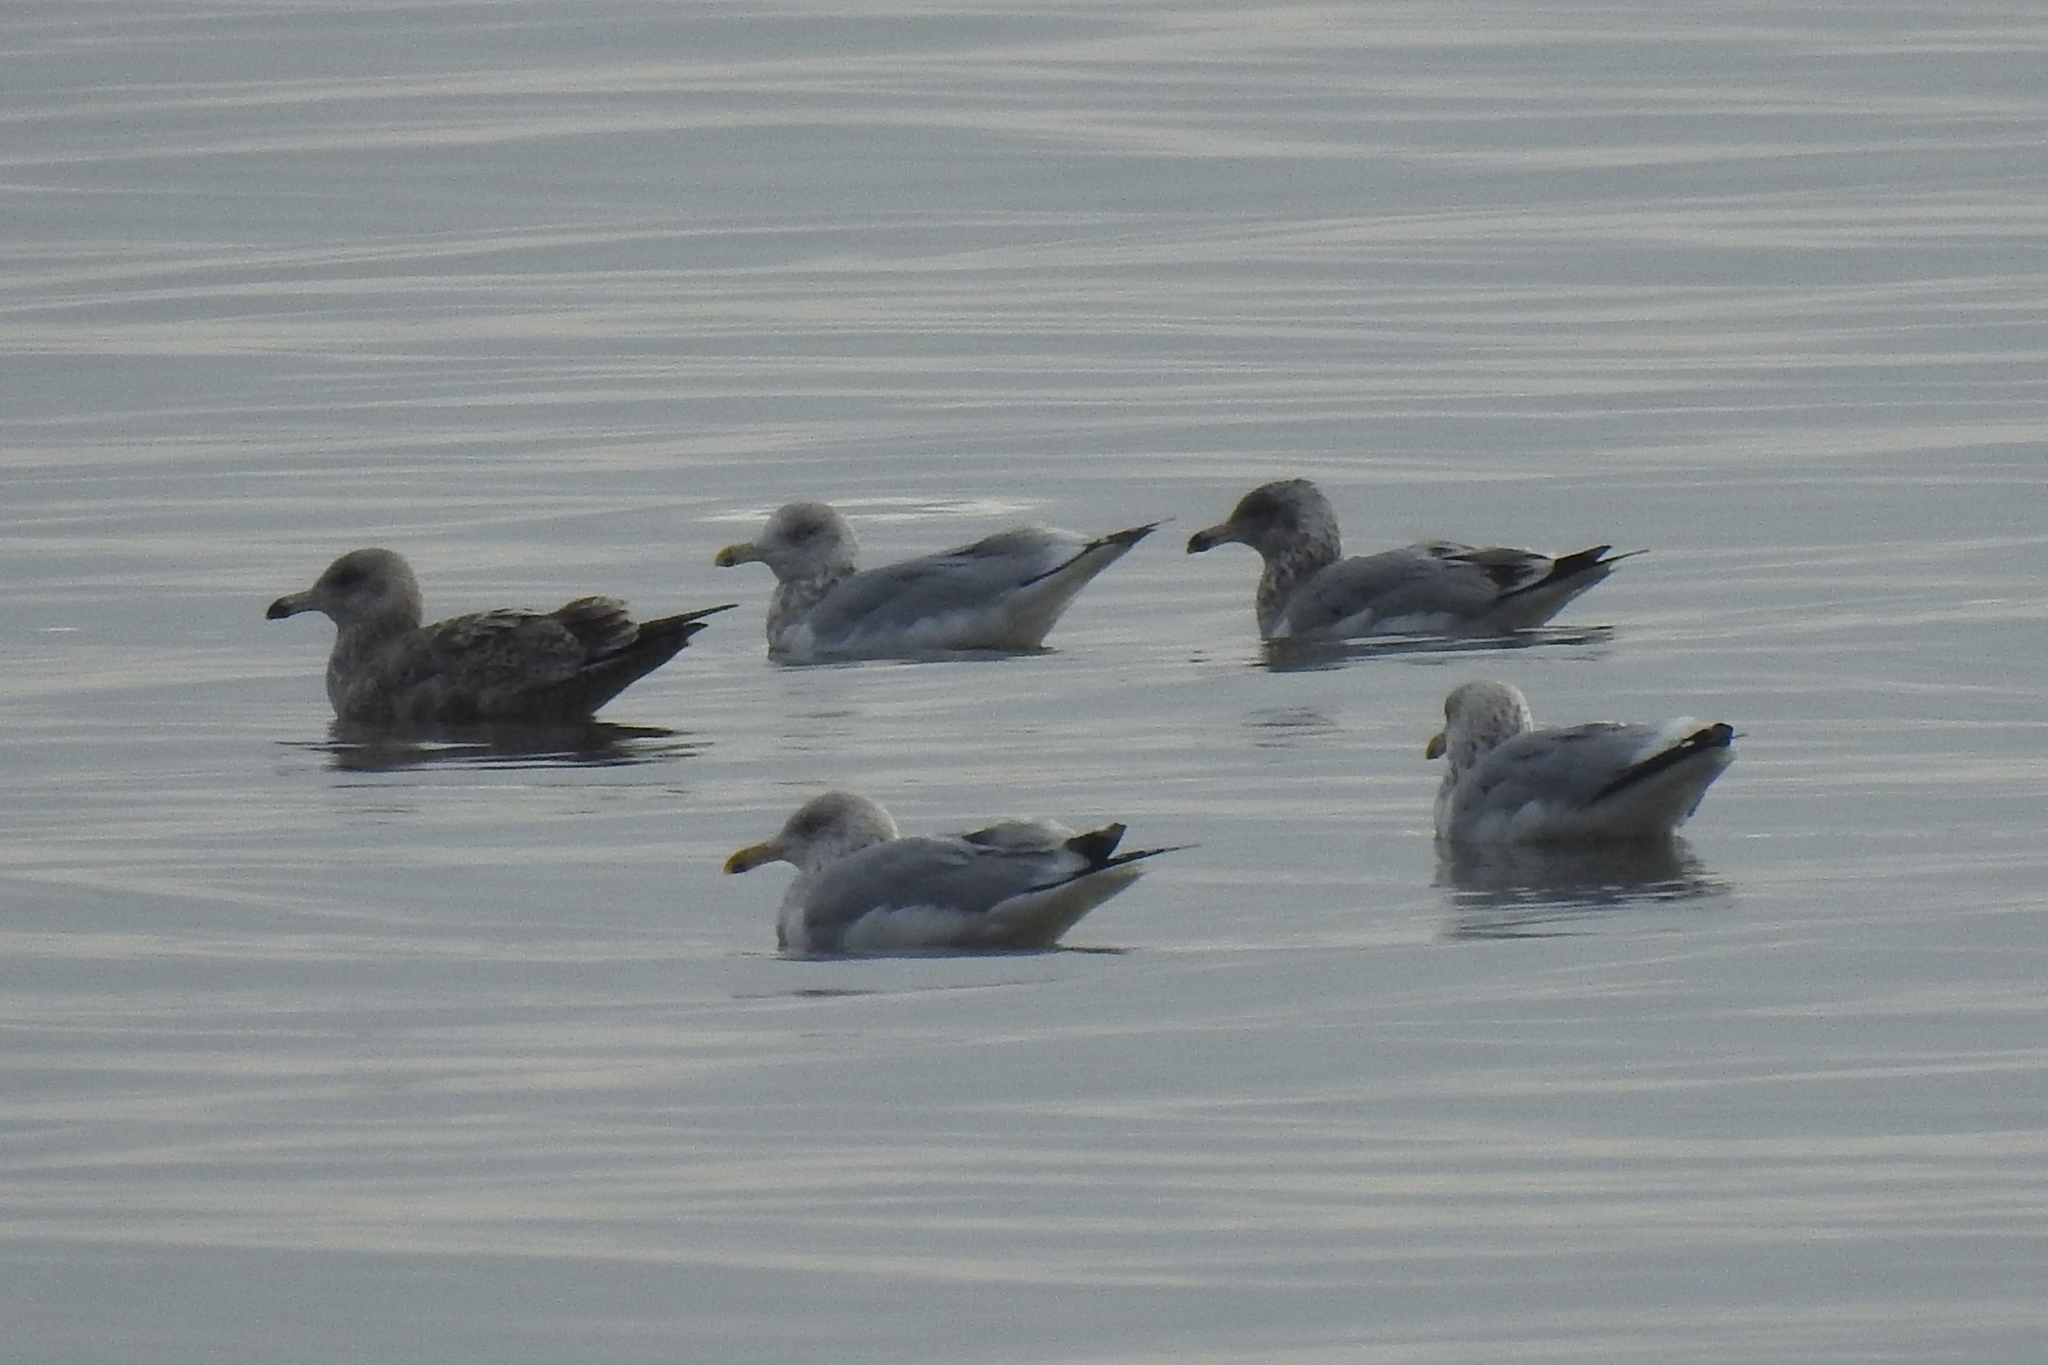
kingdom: Animalia
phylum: Chordata
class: Aves
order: Charadriiformes
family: Laridae
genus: Larus
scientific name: Larus argentatus
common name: Herring gull
